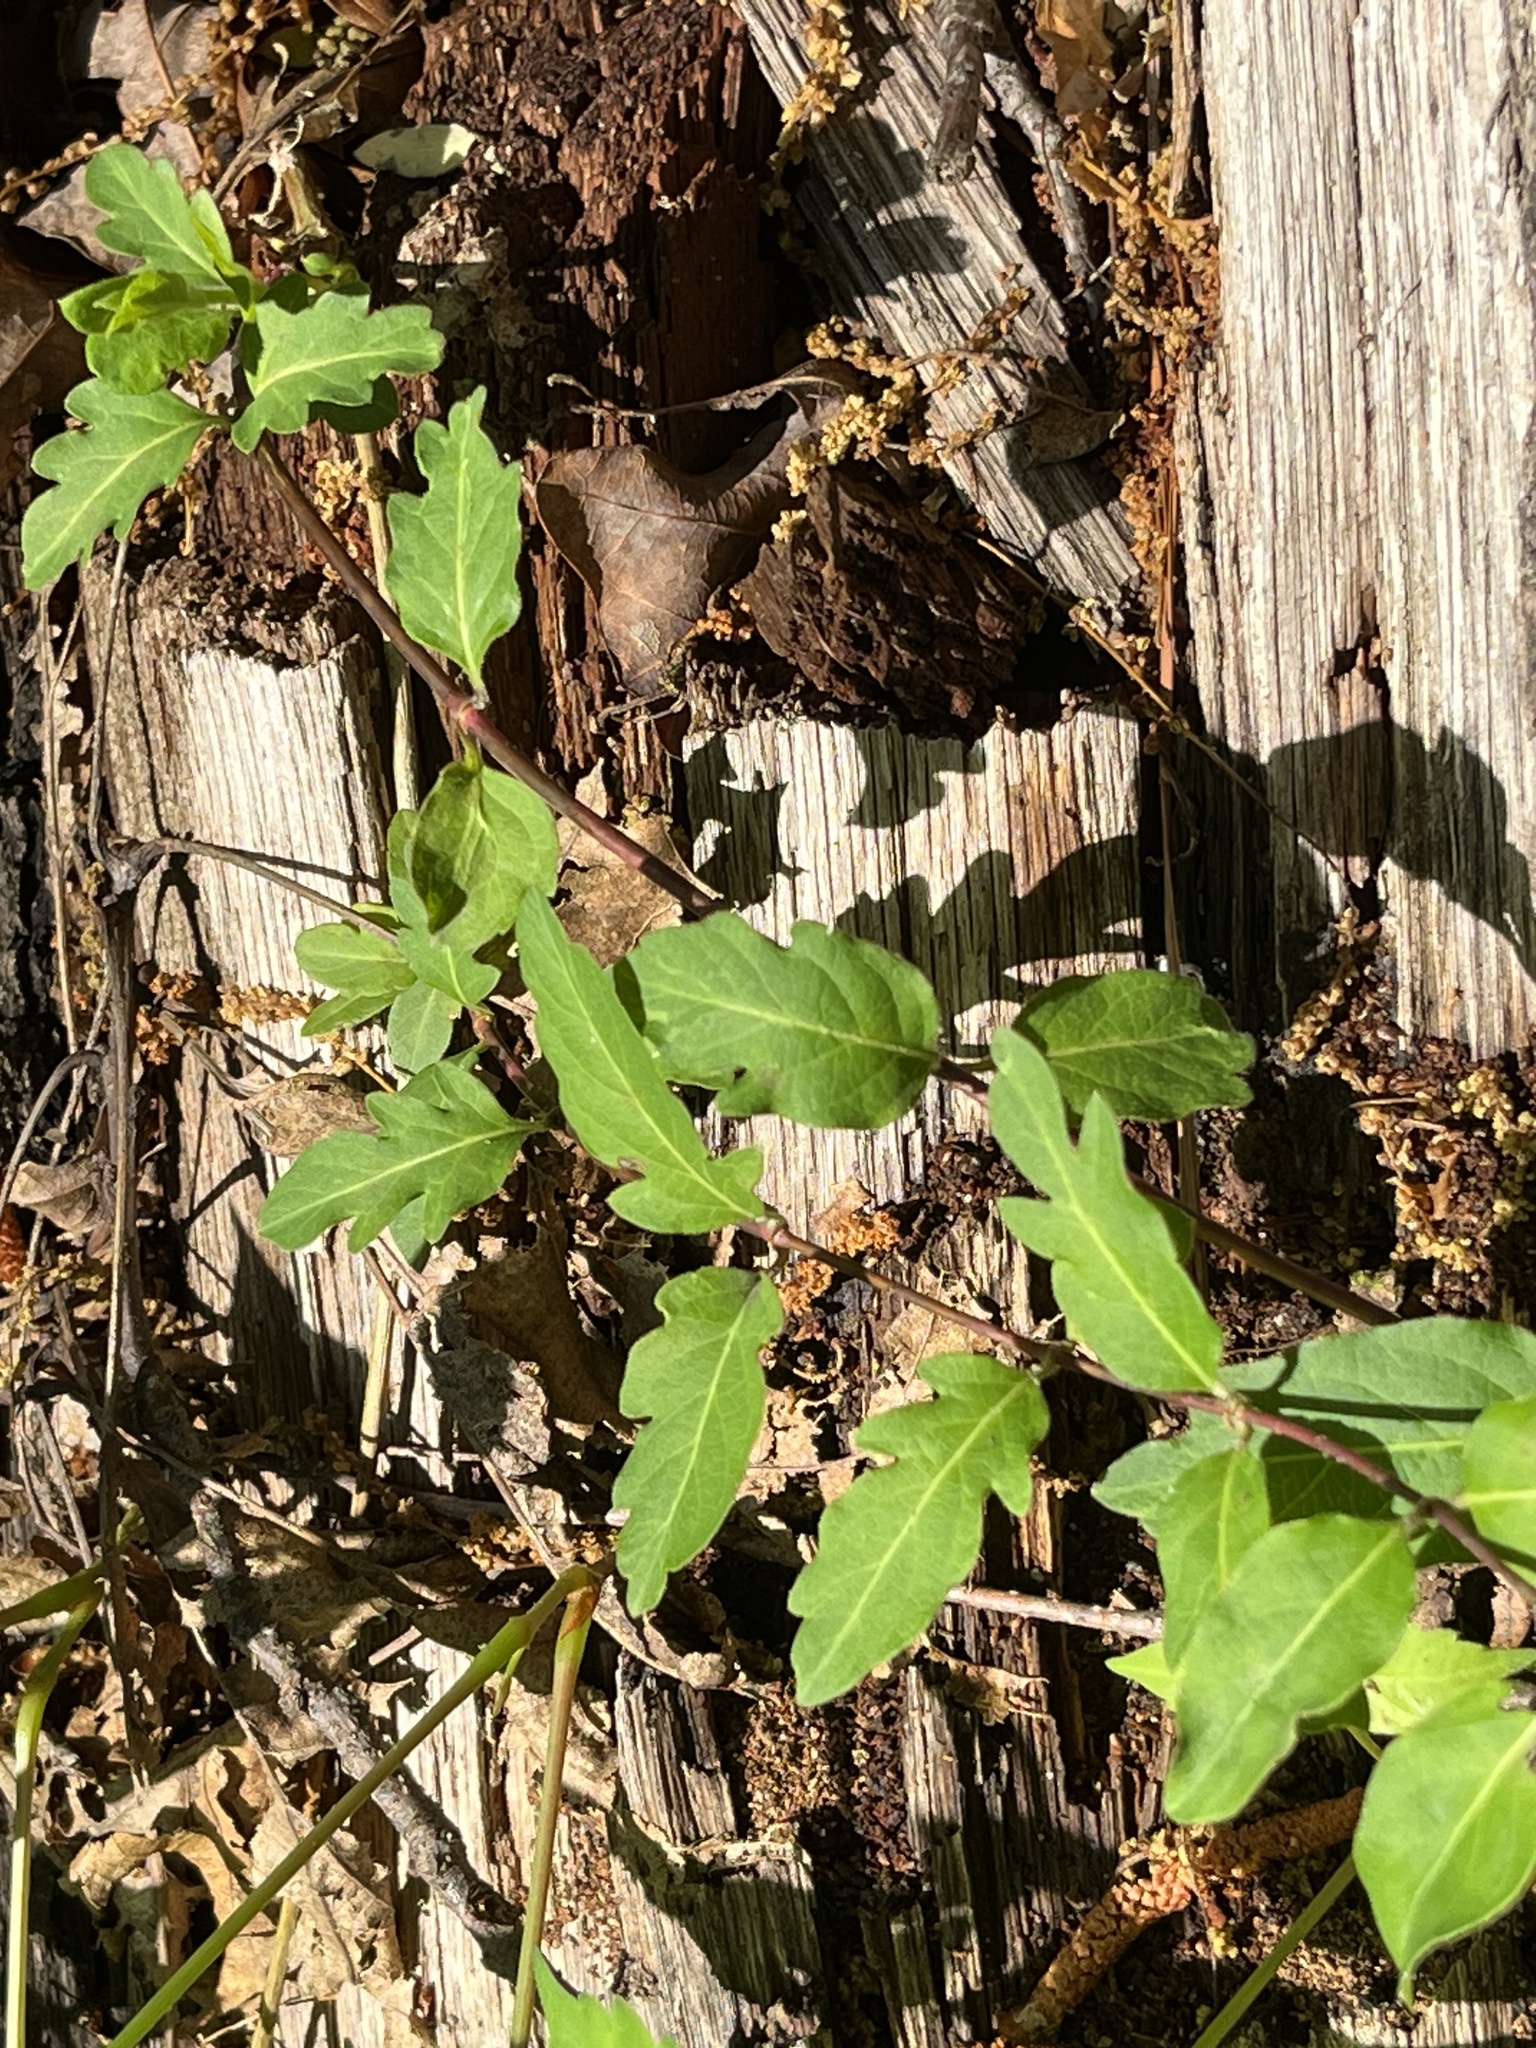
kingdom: Plantae
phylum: Tracheophyta
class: Magnoliopsida
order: Dipsacales
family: Caprifoliaceae
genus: Lonicera
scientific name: Lonicera japonica
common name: Japanese honeysuckle
